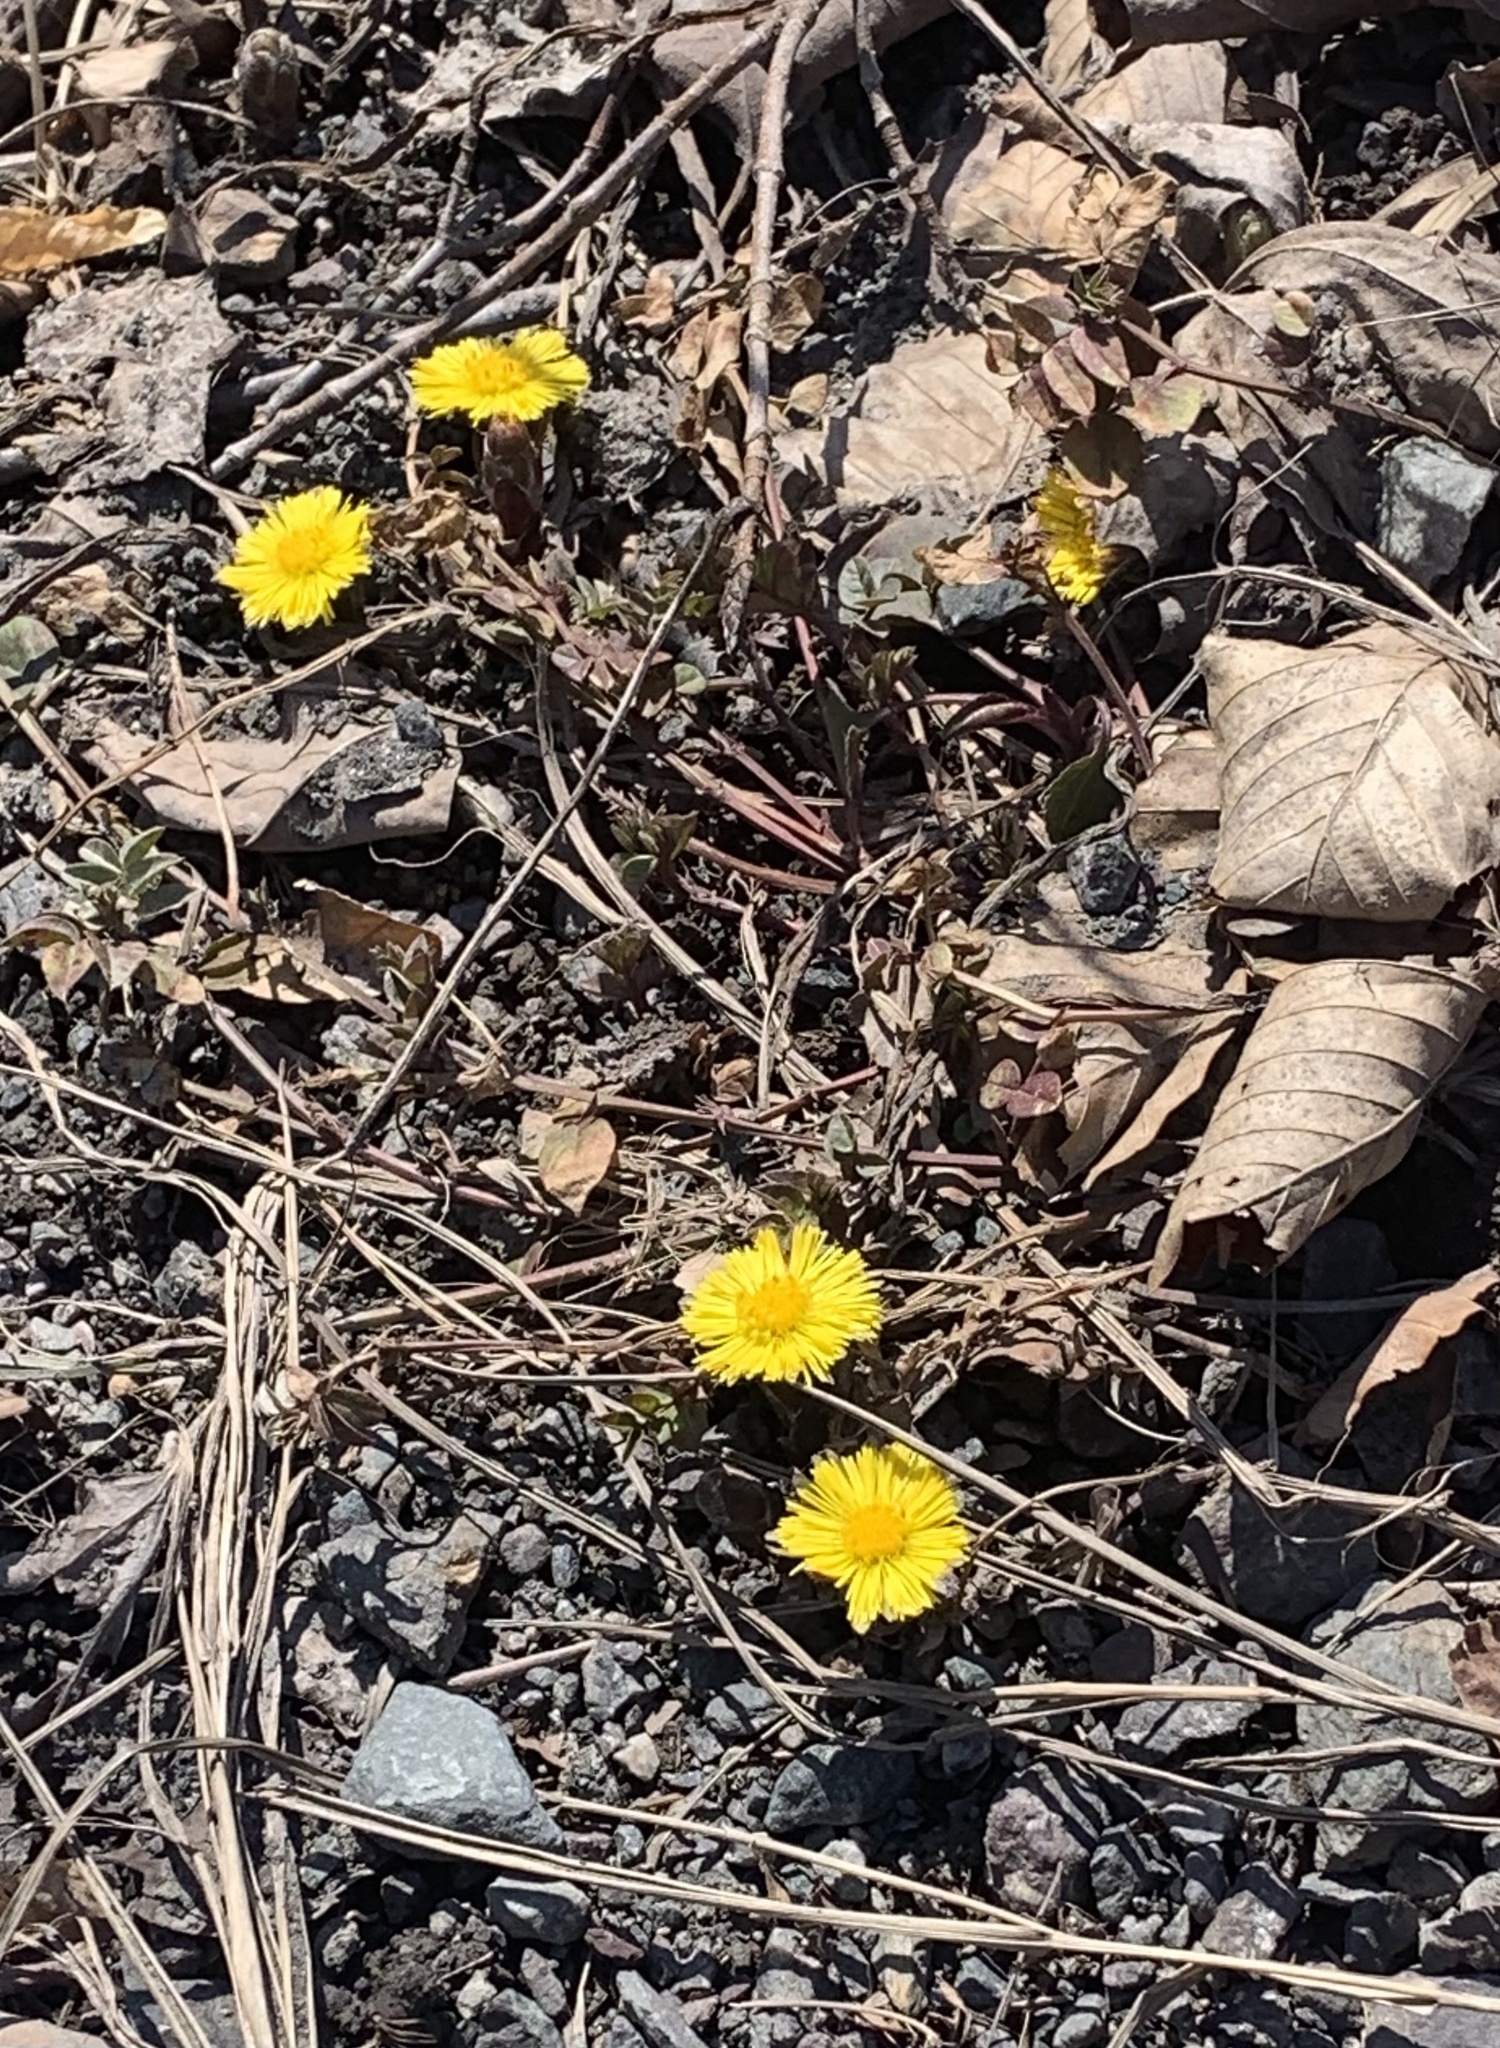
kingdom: Plantae
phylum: Tracheophyta
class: Magnoliopsida
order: Asterales
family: Asteraceae
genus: Tussilago
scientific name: Tussilago farfara
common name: Coltsfoot
